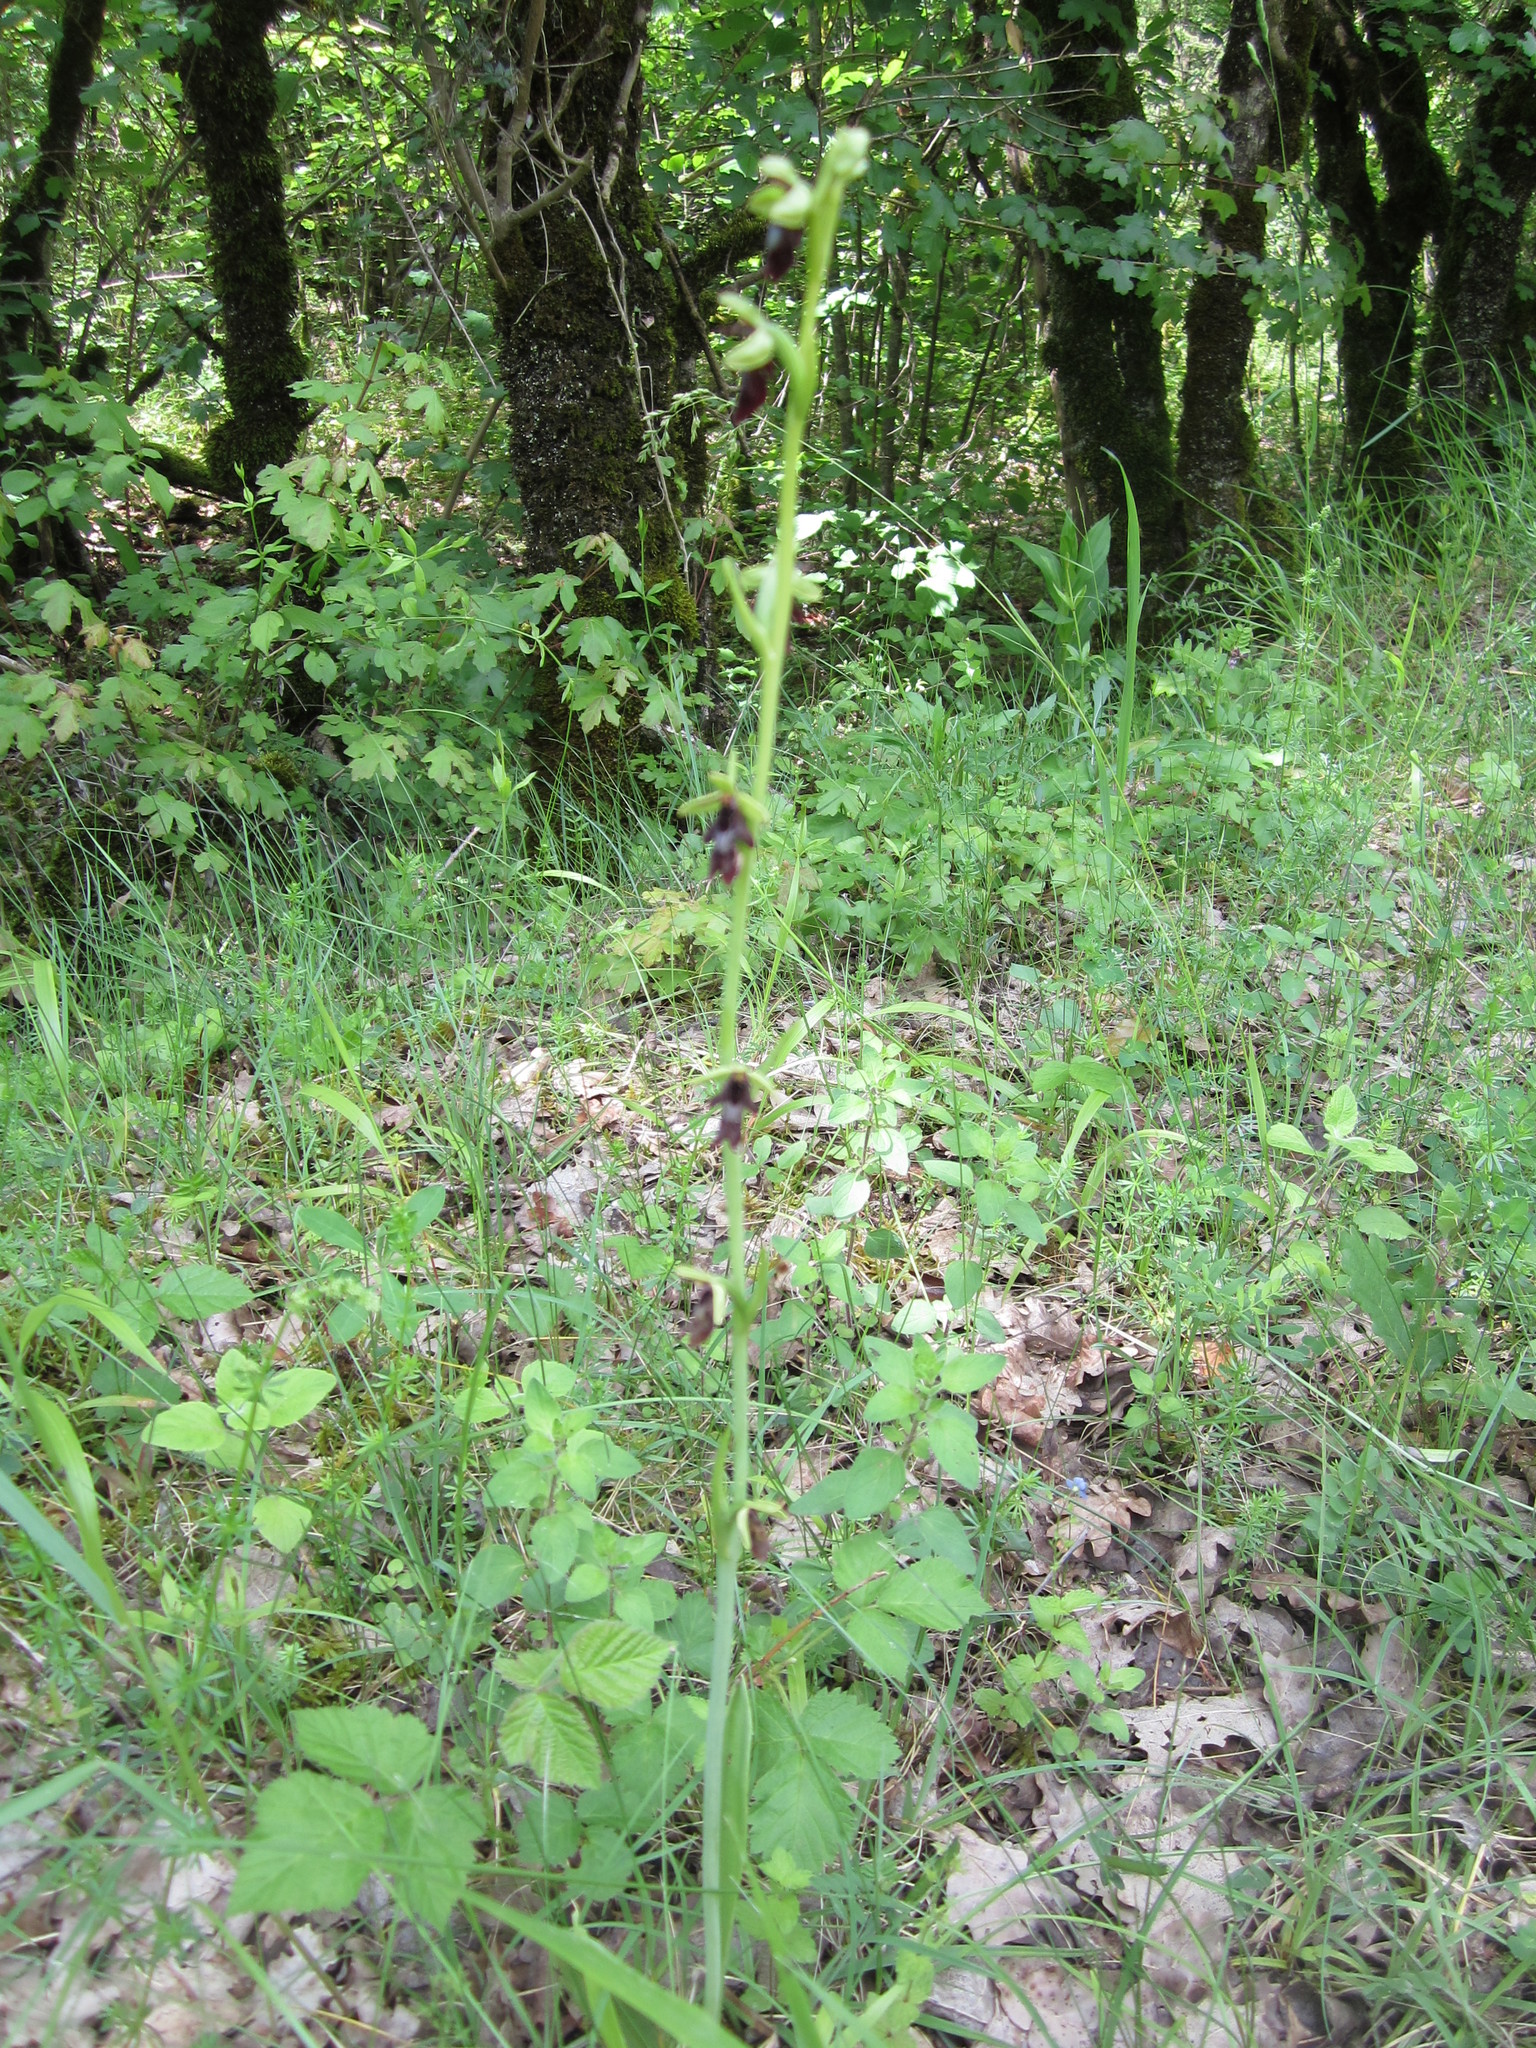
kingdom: Plantae
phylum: Tracheophyta
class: Liliopsida
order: Asparagales
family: Orchidaceae
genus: Ophrys
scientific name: Ophrys insectifera
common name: Fly orchid
